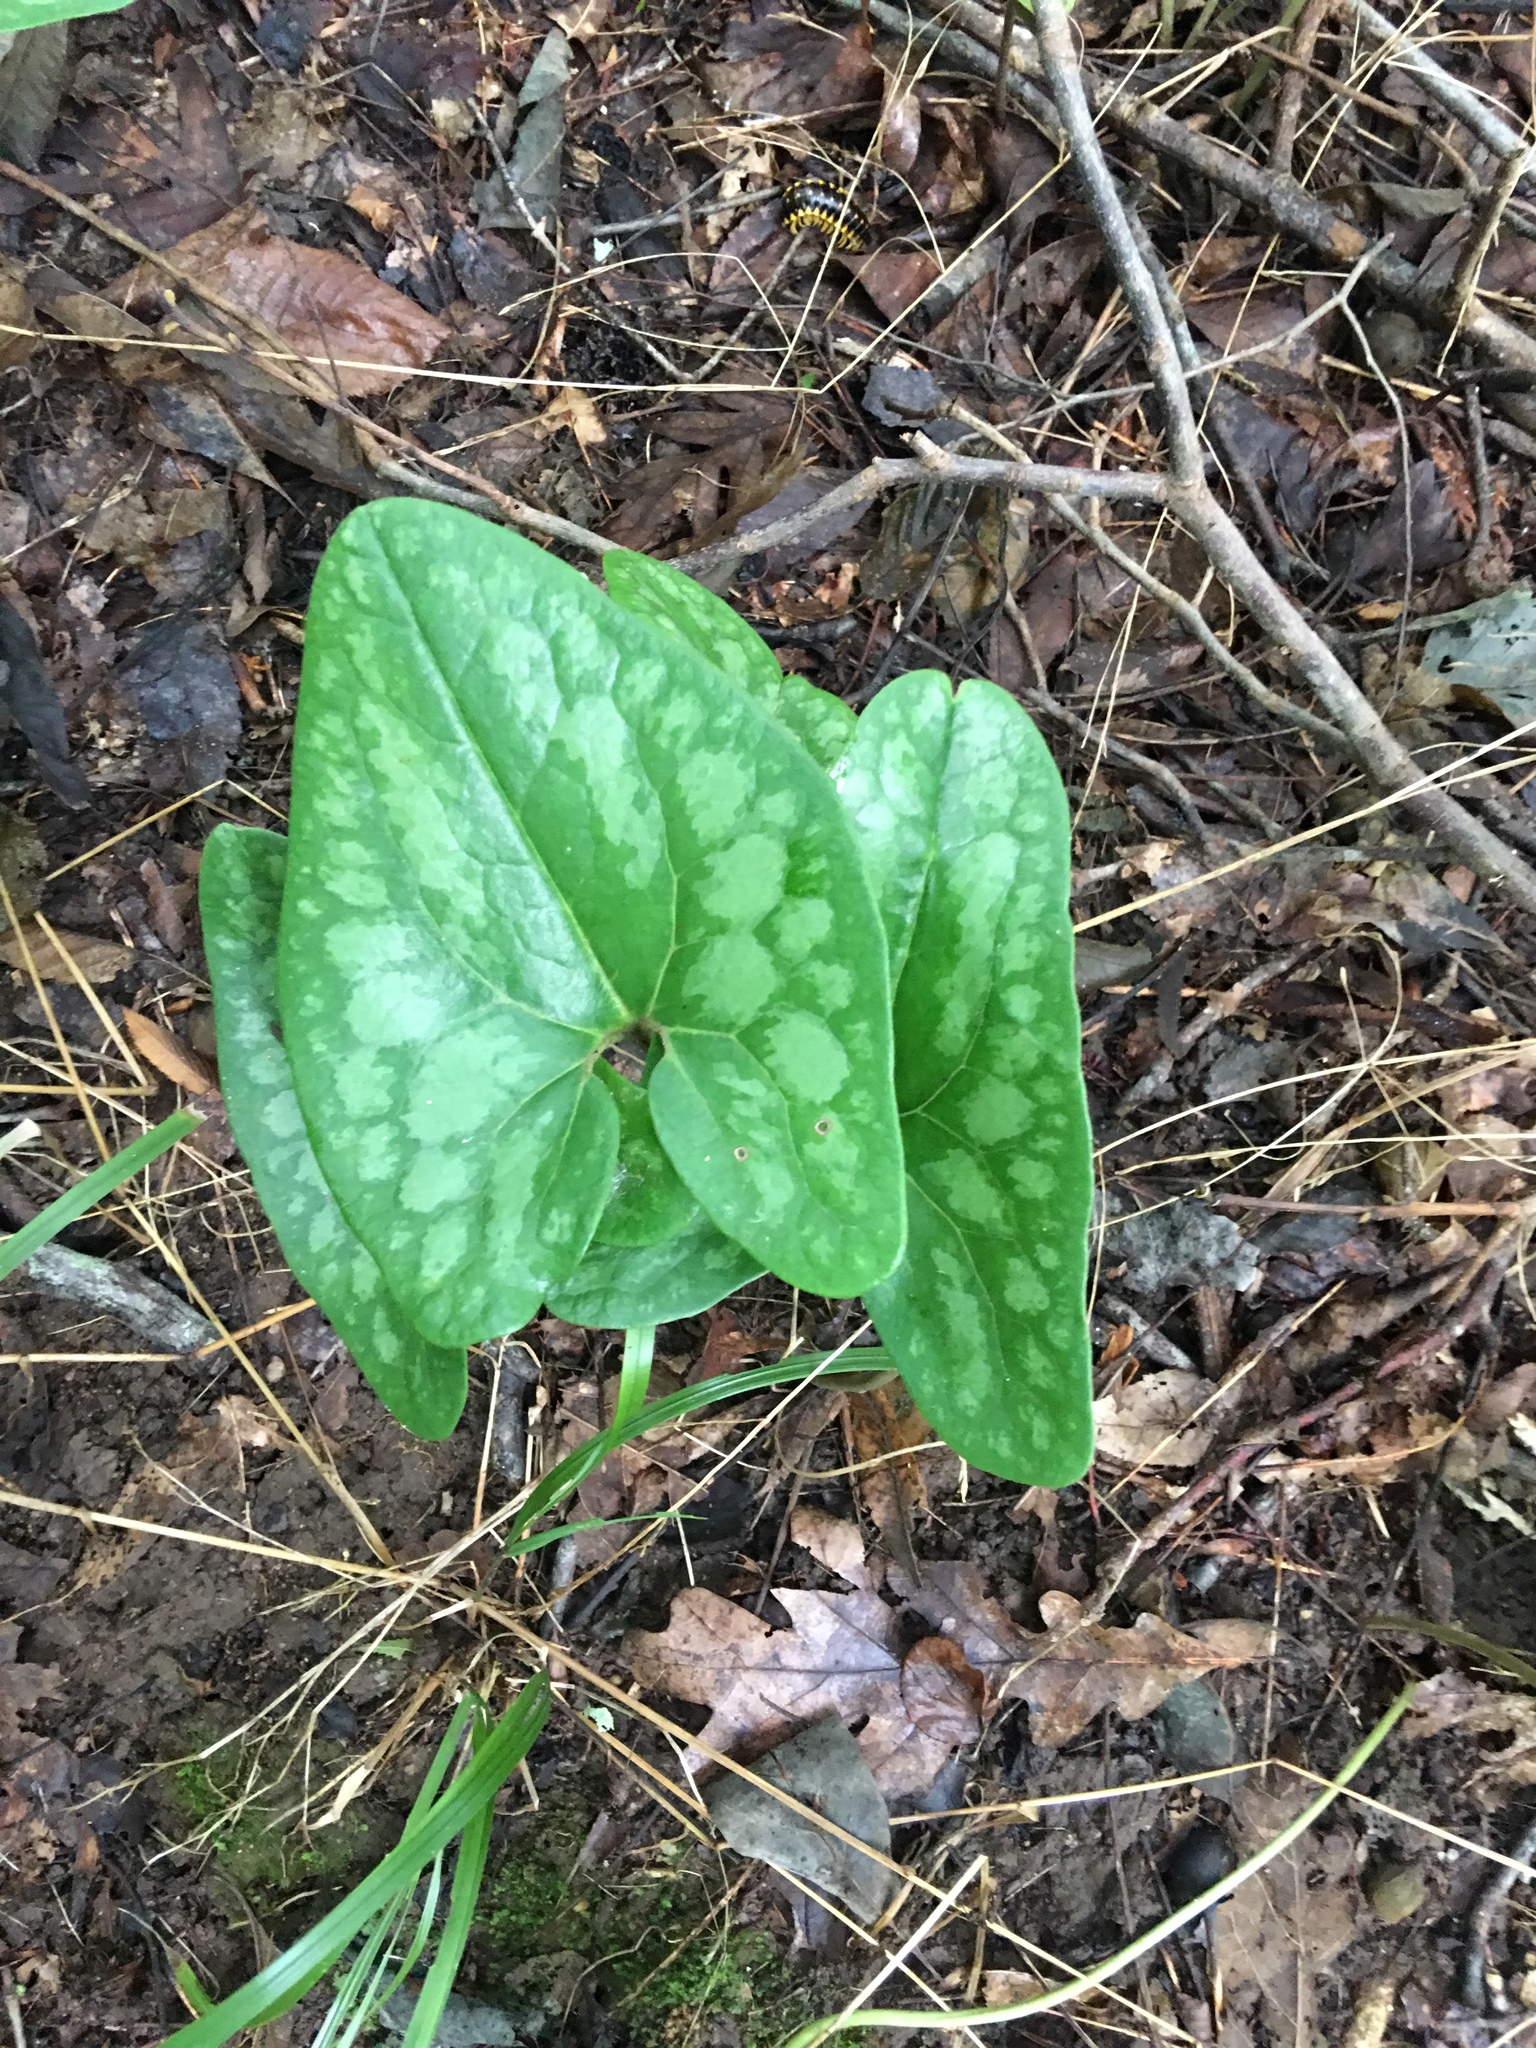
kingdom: Plantae
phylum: Tracheophyta
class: Magnoliopsida
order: Piperales
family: Aristolochiaceae
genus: Hexastylis
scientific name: Hexastylis arifolia
